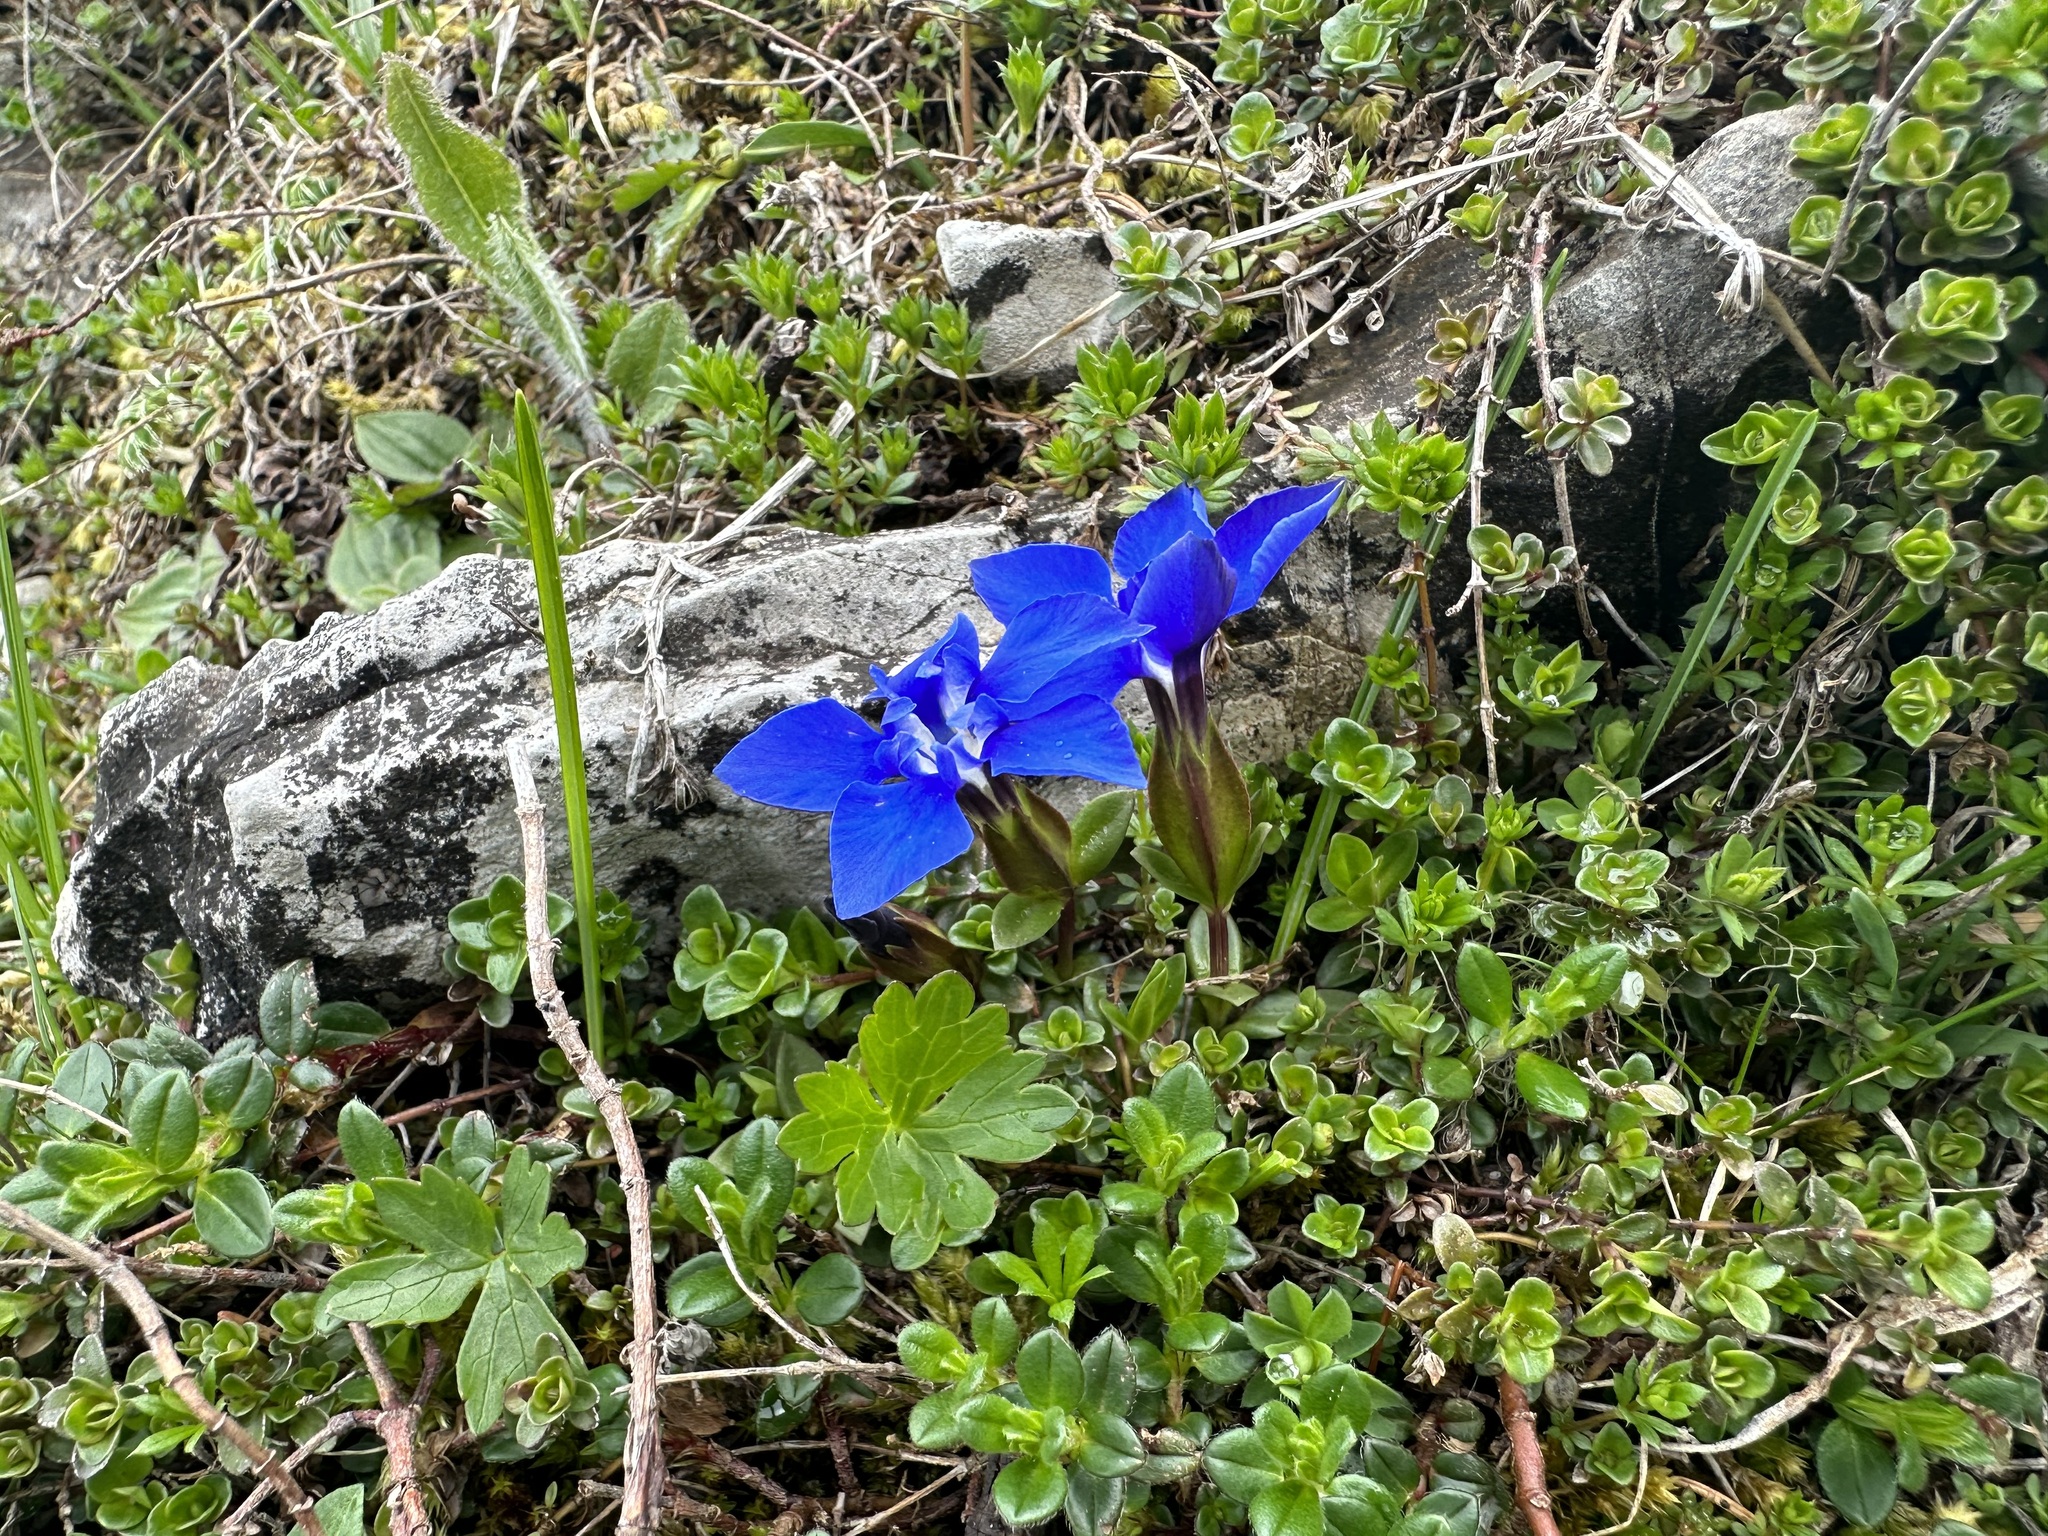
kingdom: Plantae
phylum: Tracheophyta
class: Magnoliopsida
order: Gentianales
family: Gentianaceae
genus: Gentiana
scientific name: Gentiana verna
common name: Spring gentian
